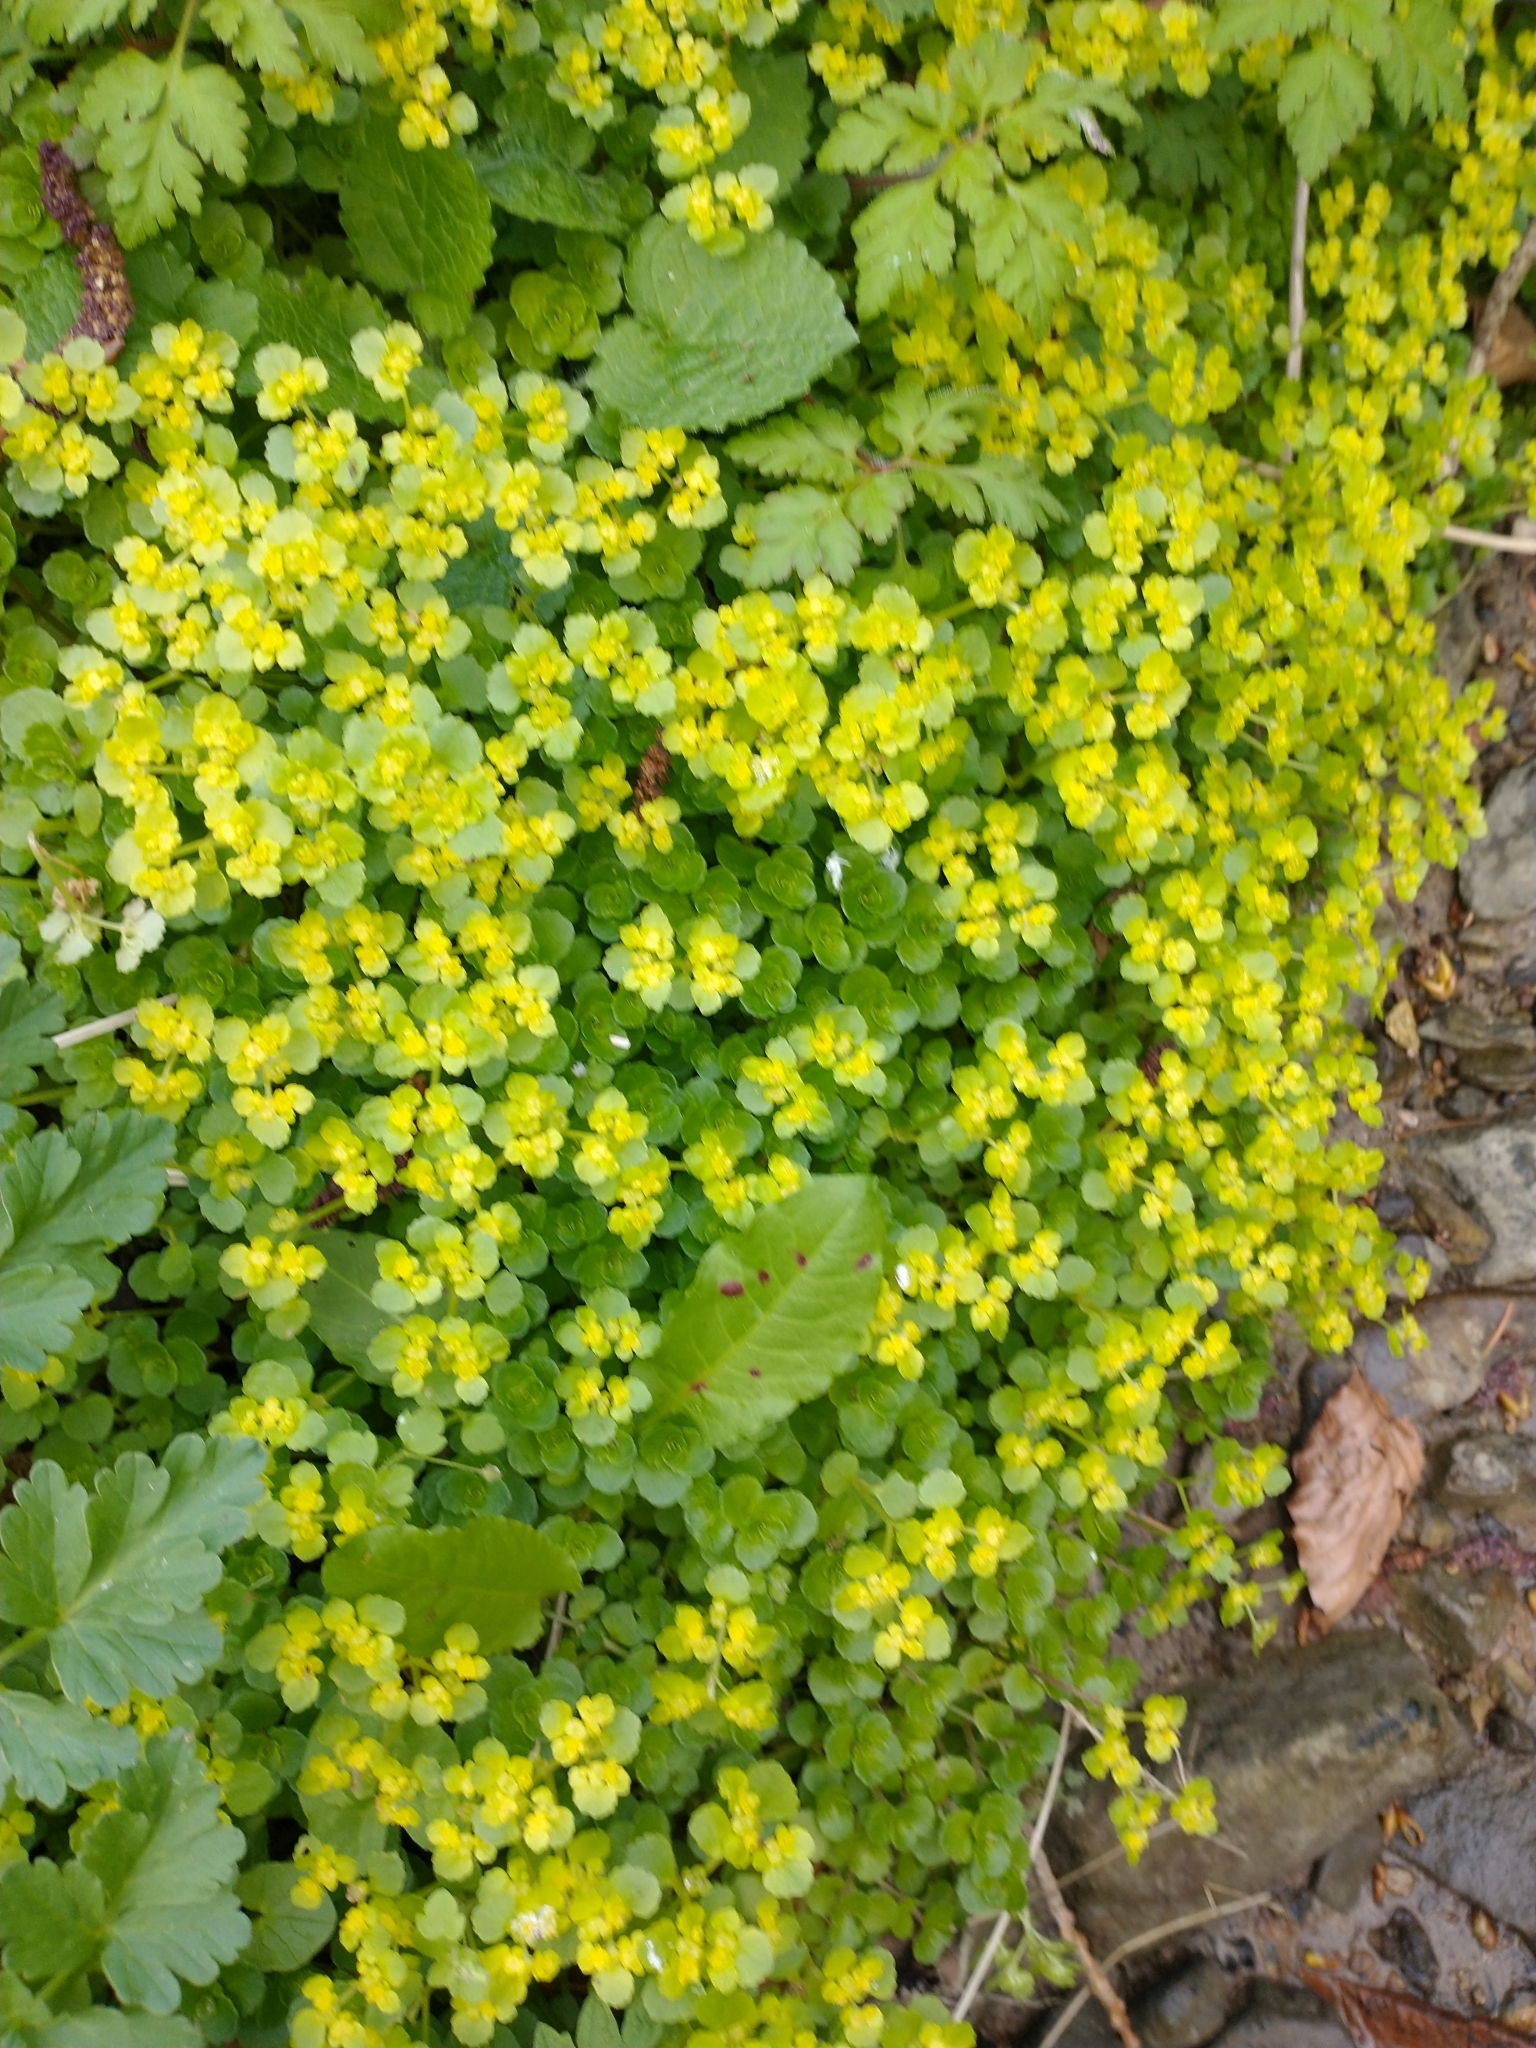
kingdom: Plantae
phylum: Tracheophyta
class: Magnoliopsida
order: Saxifragales
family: Saxifragaceae
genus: Chrysosplenium
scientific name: Chrysosplenium oppositifolium
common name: Opposite-leaved golden-saxifrage
